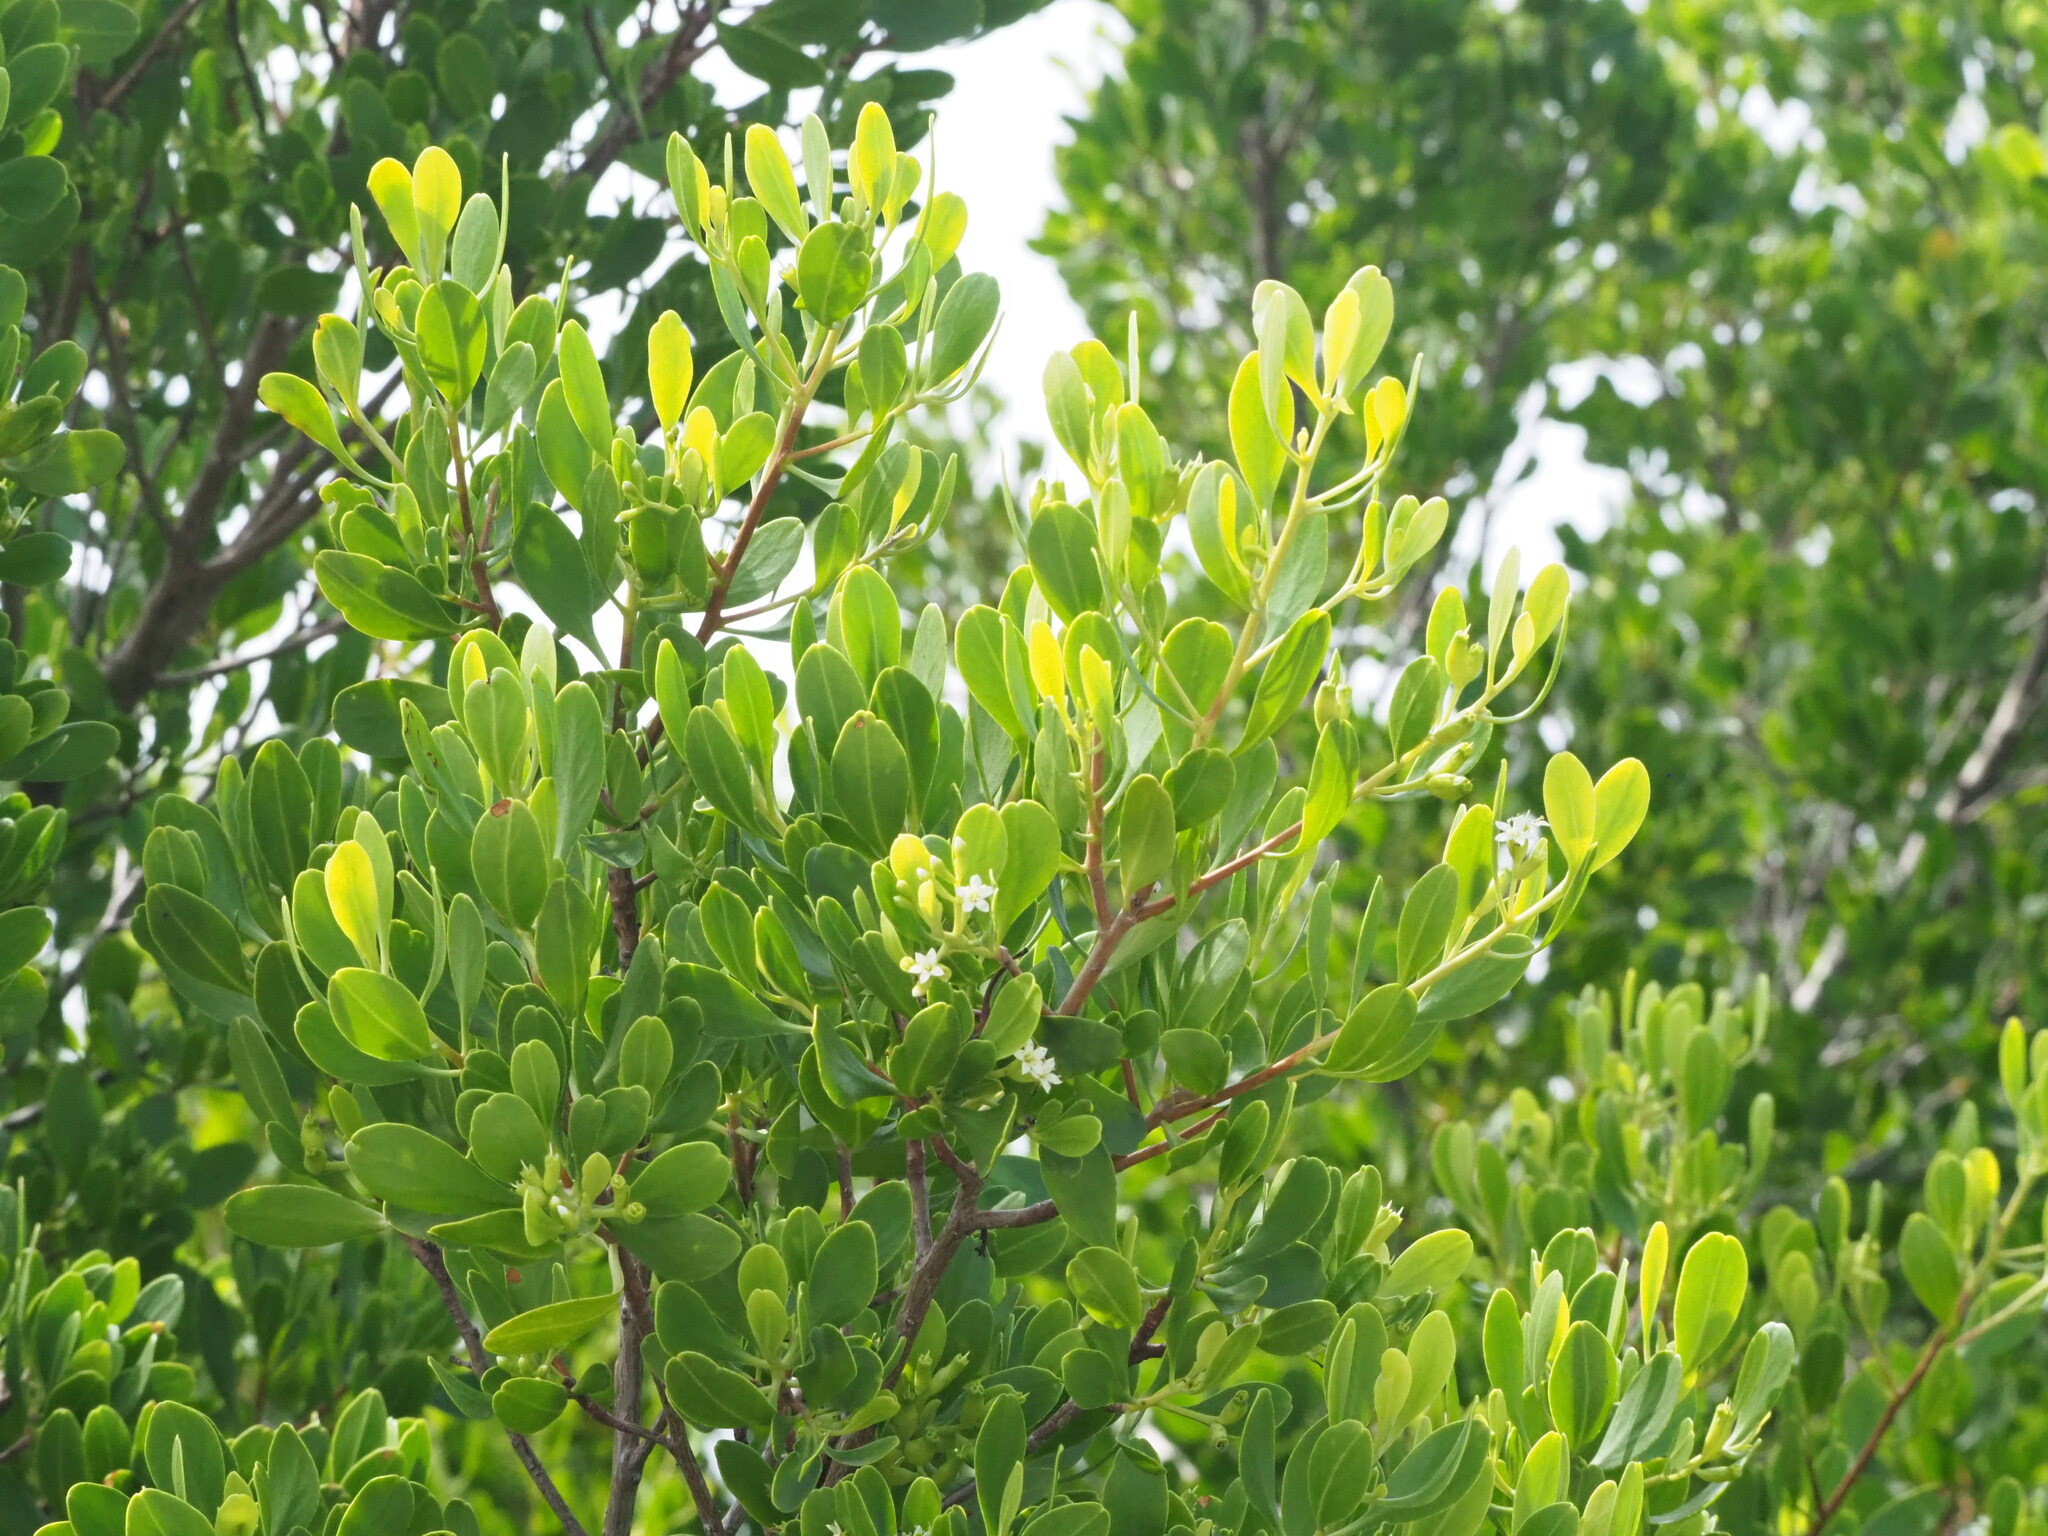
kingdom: Plantae
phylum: Tracheophyta
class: Magnoliopsida
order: Myrtales
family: Combretaceae
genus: Lumnitzera
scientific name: Lumnitzera racemosa
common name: White-flowered black mangrove
